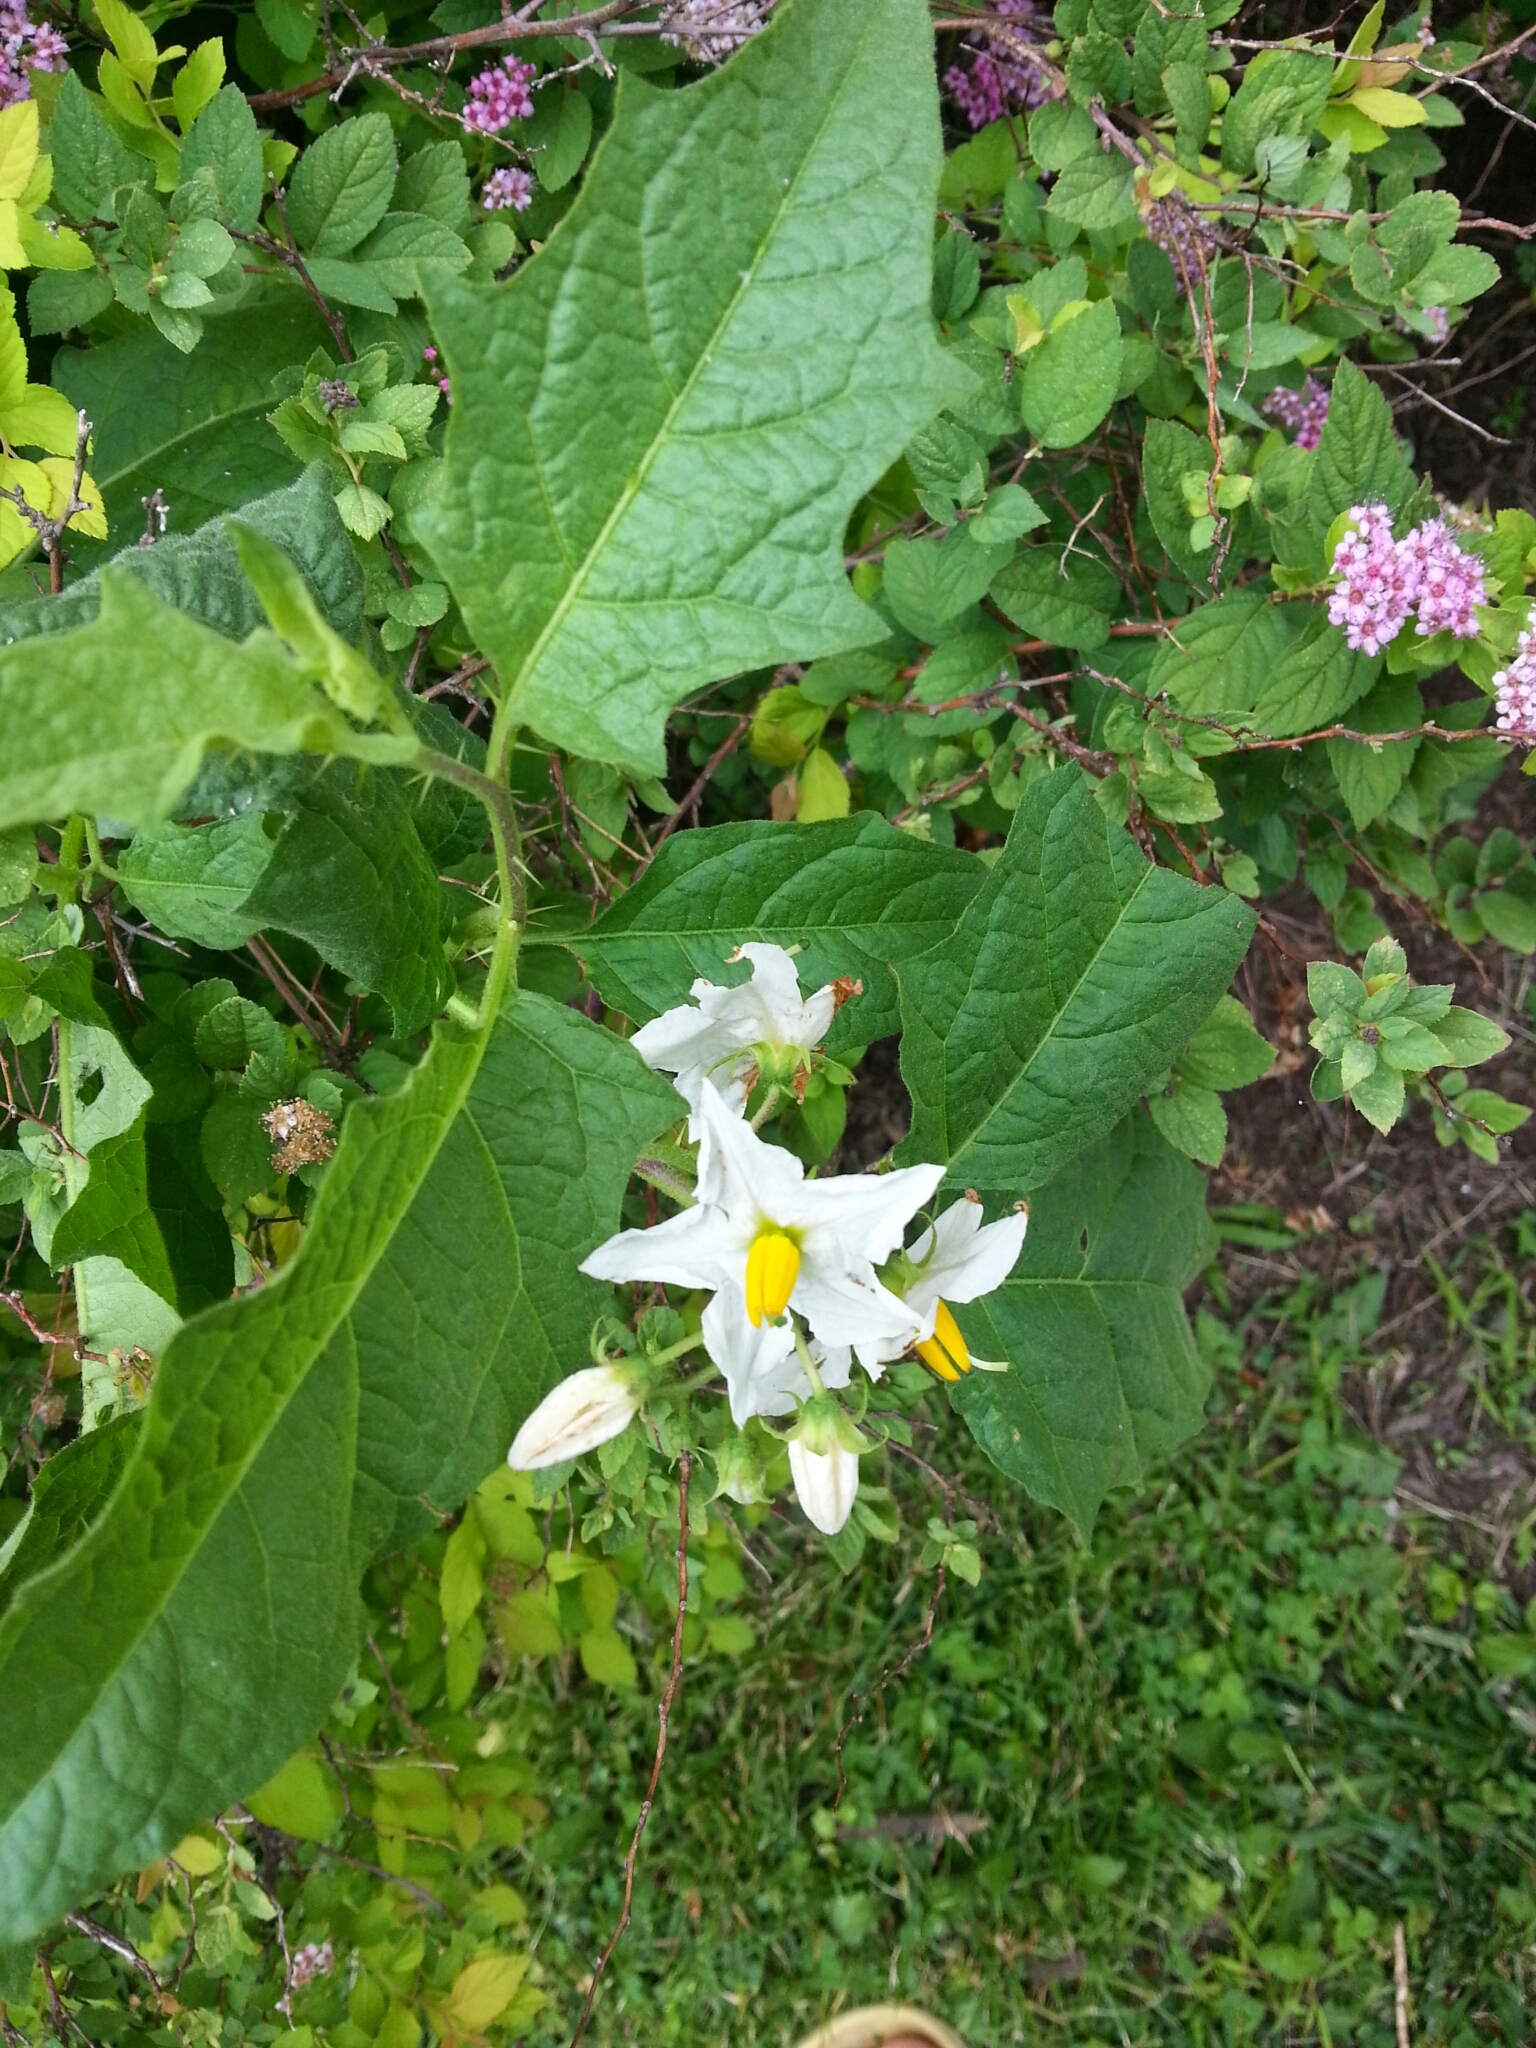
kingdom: Plantae
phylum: Tracheophyta
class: Magnoliopsida
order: Solanales
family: Solanaceae
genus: Solanum
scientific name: Solanum carolinense
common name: Horse-nettle
